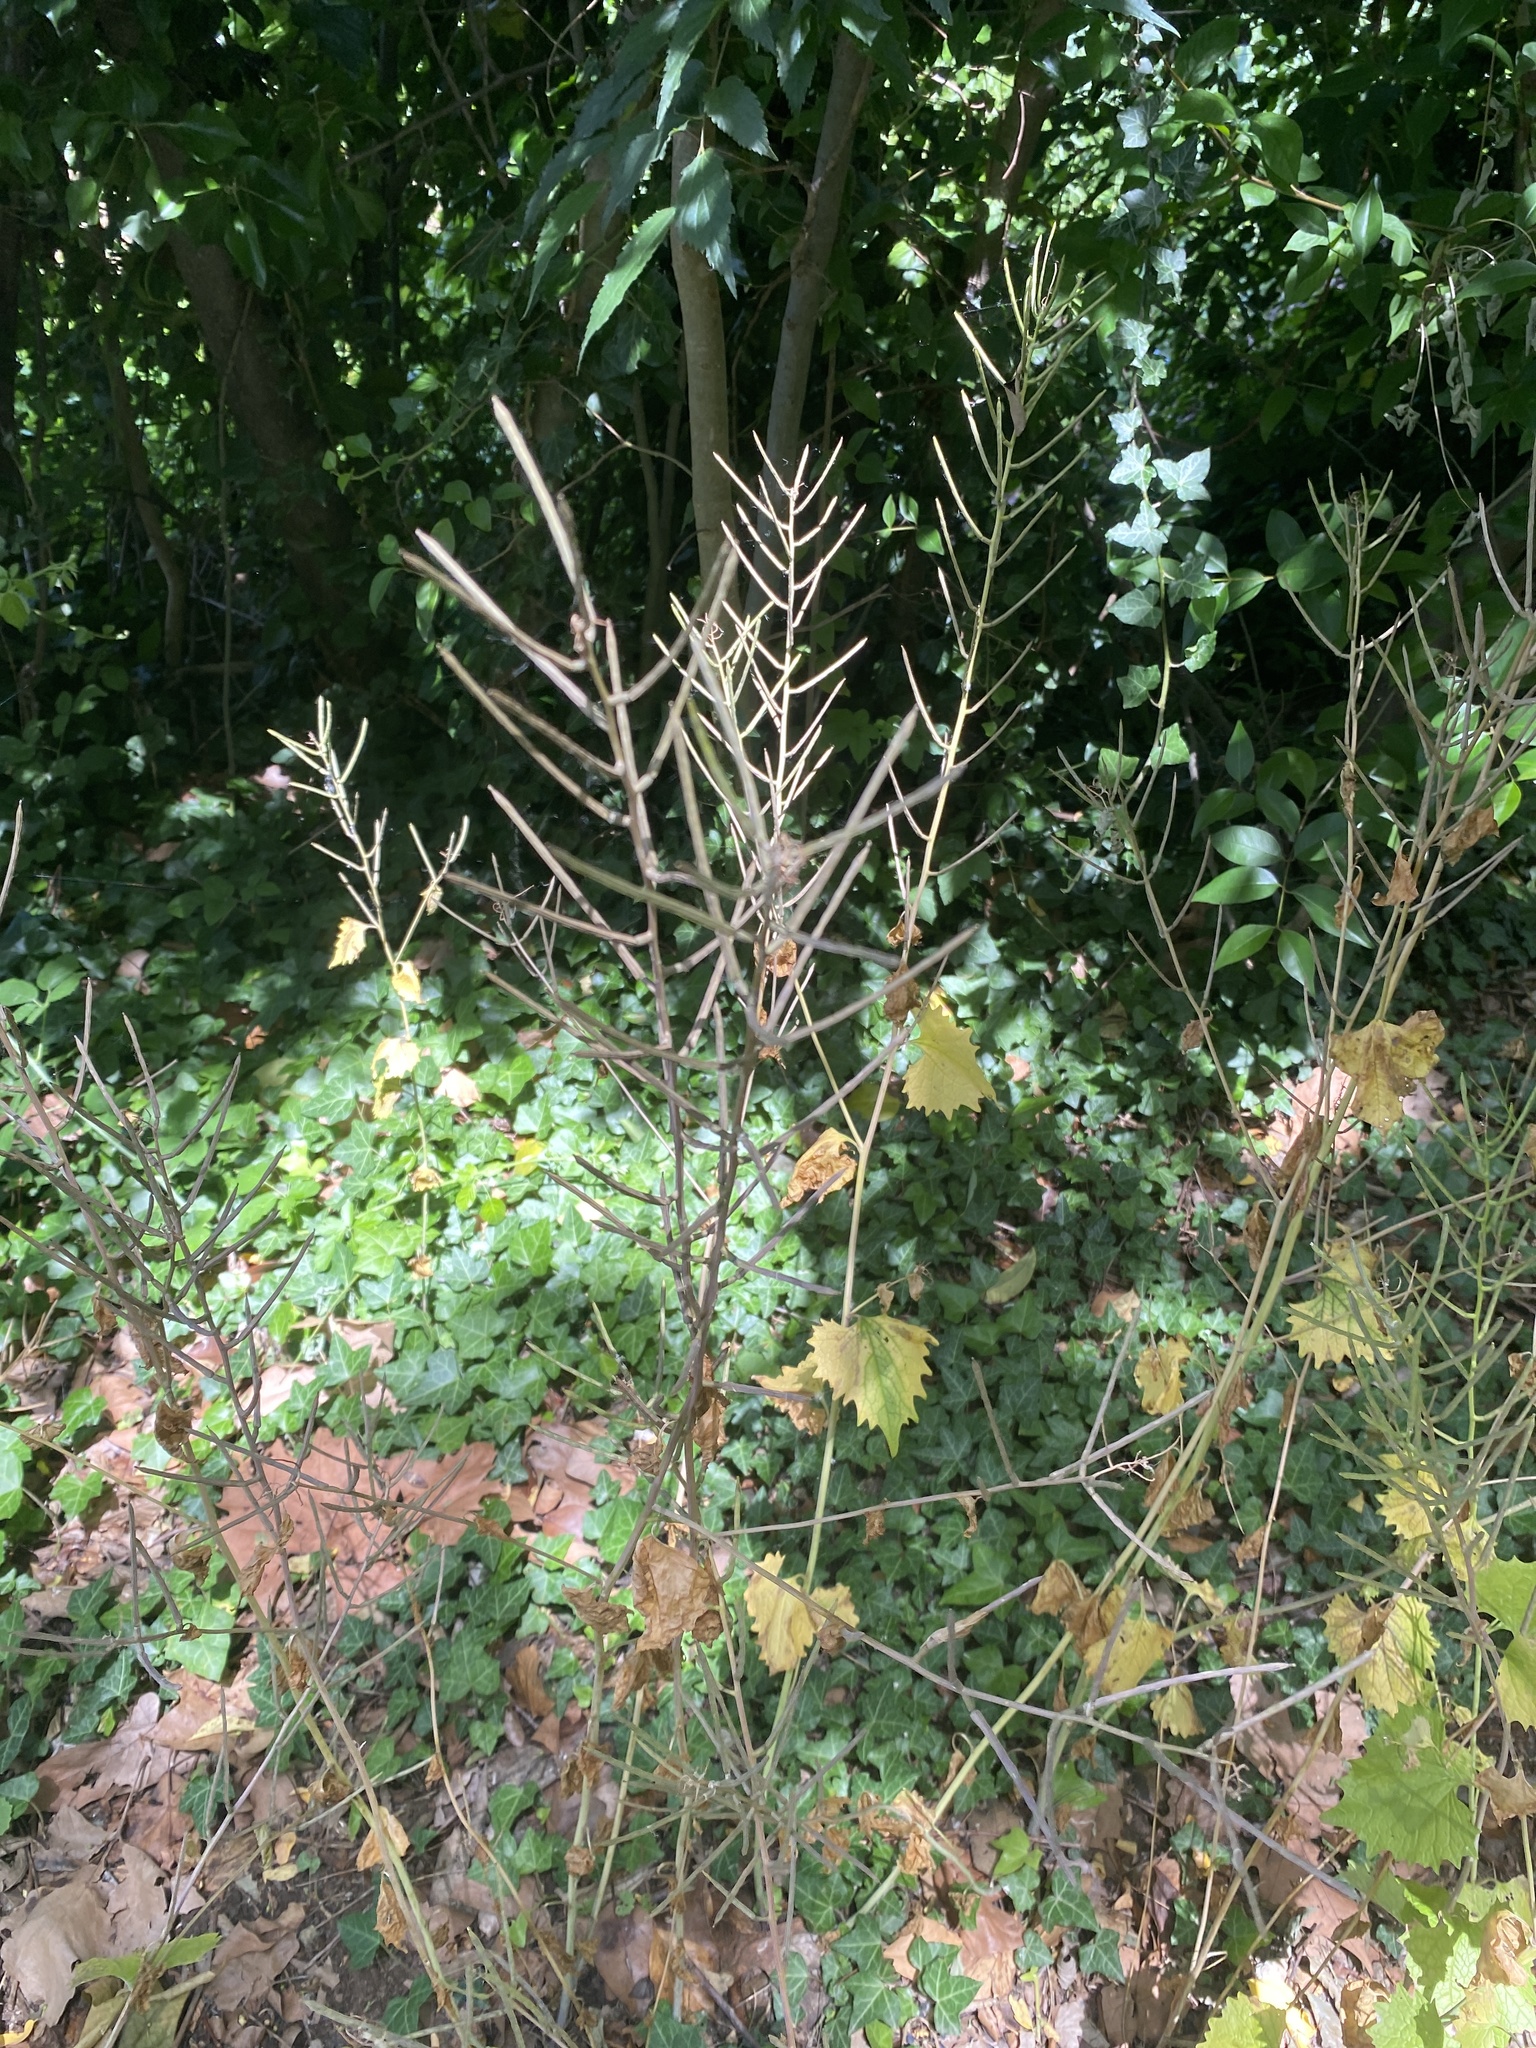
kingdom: Plantae
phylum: Tracheophyta
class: Magnoliopsida
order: Brassicales
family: Brassicaceae
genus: Alliaria
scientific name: Alliaria petiolata
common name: Garlic mustard
